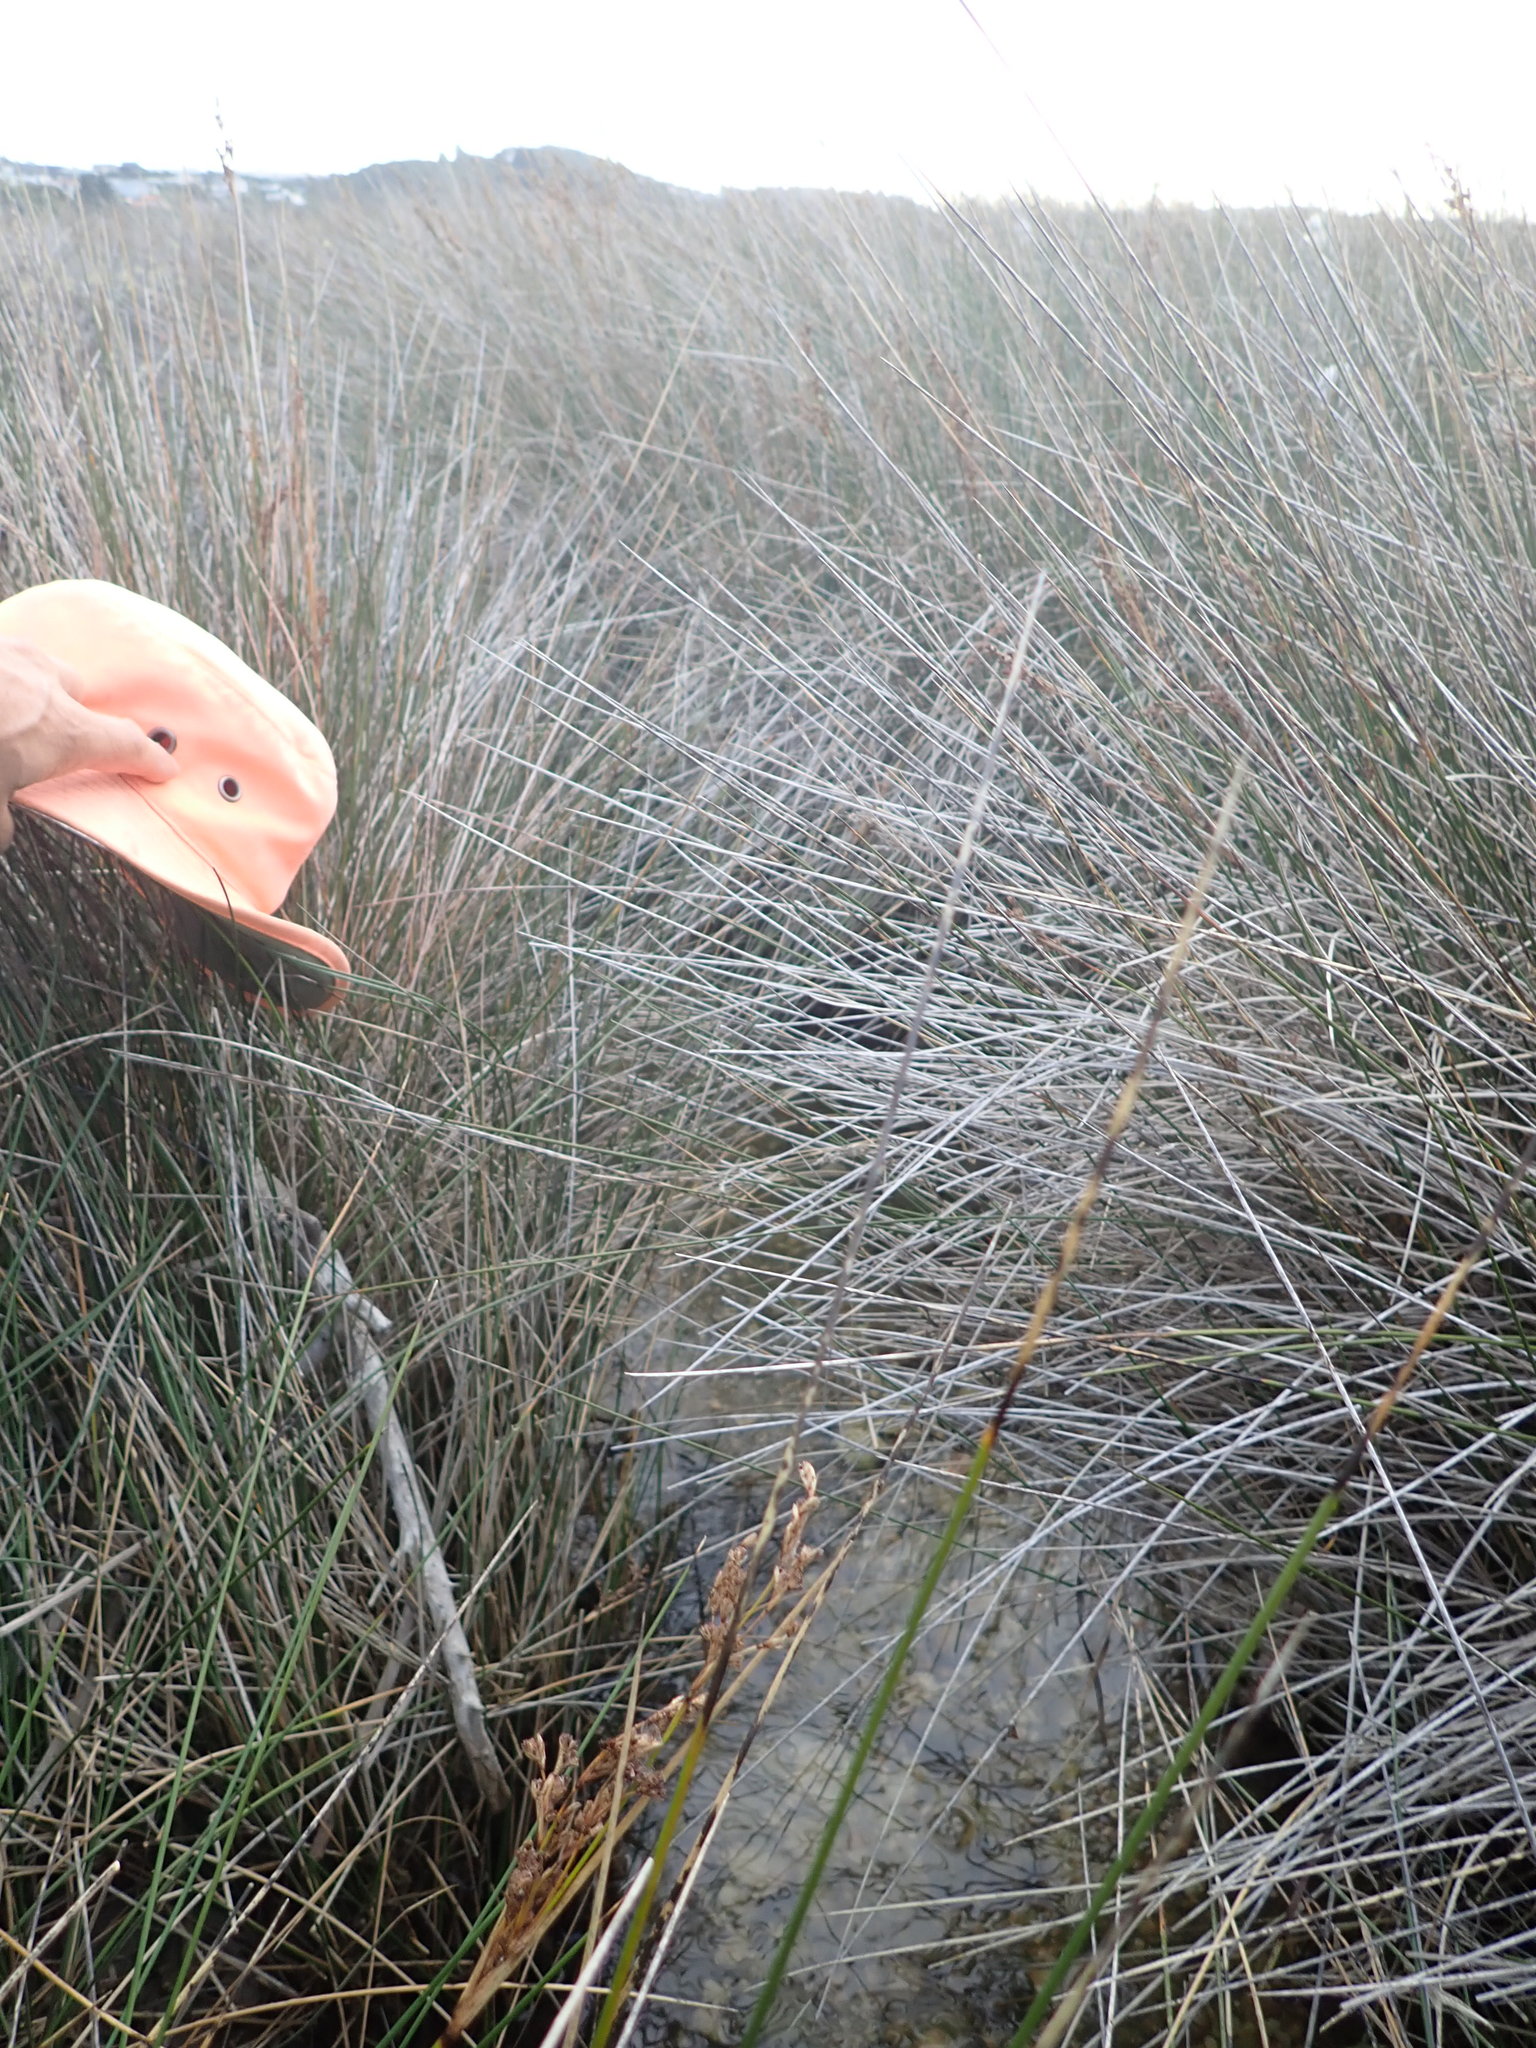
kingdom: Animalia
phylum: Mollusca
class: Bivalvia
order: Venerida
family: Veneridae
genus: Austrovenus
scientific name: Austrovenus stutchburyi
